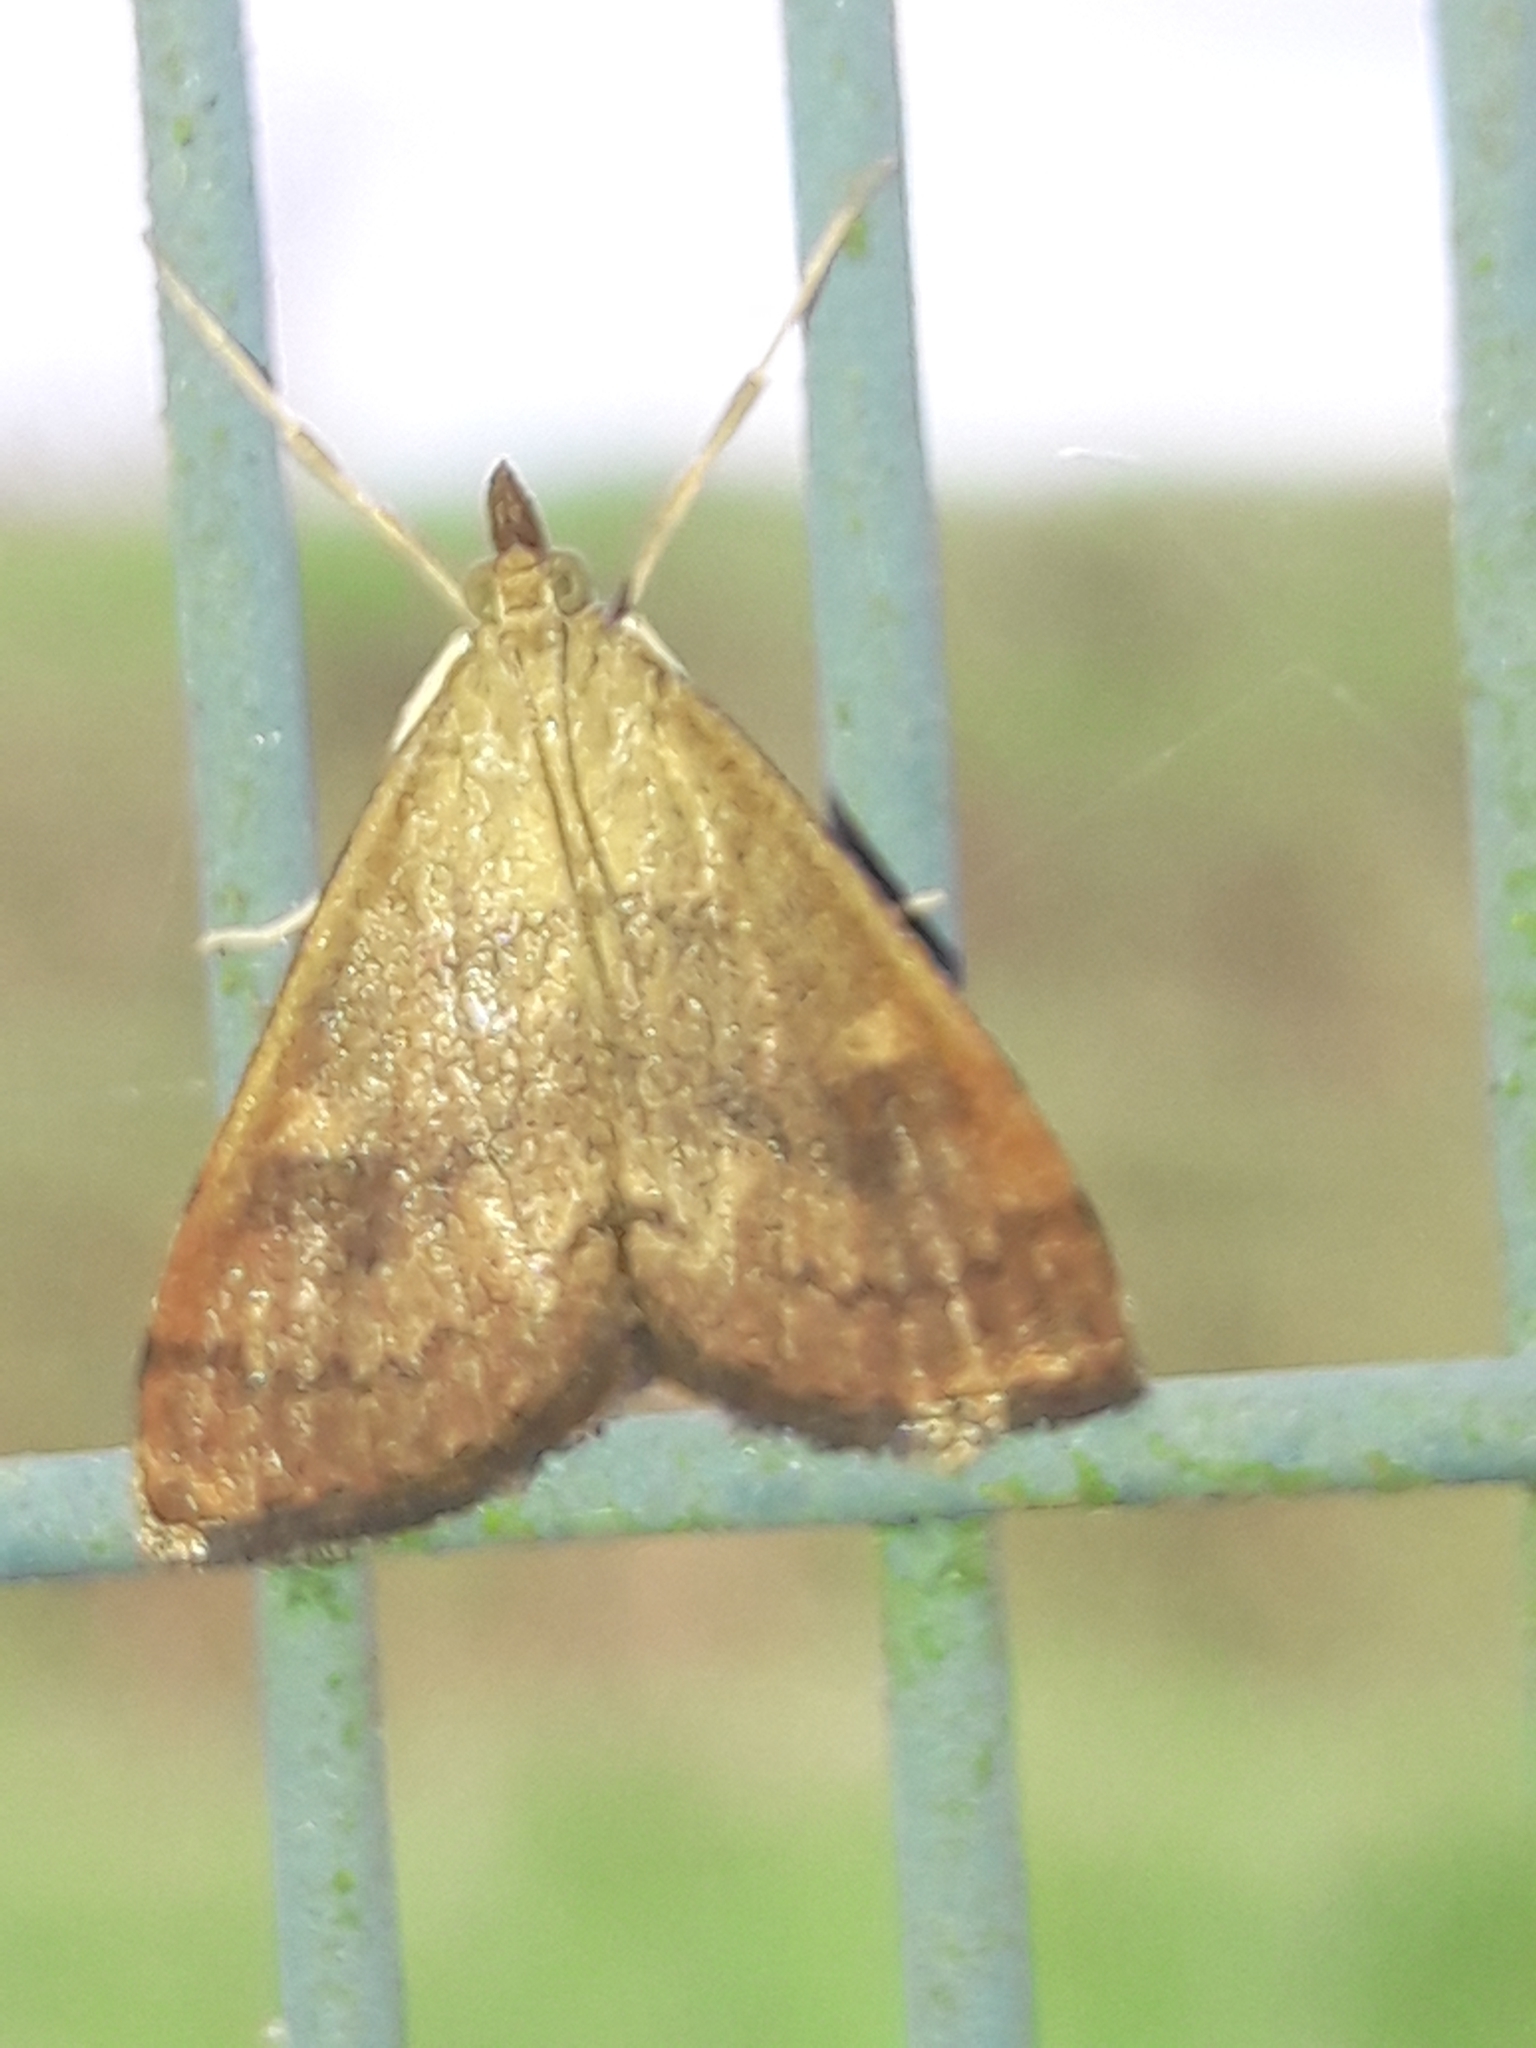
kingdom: Animalia
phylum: Arthropoda
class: Insecta
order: Lepidoptera
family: Crambidae
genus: Udea
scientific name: Udea Mnesictena flavidalis
